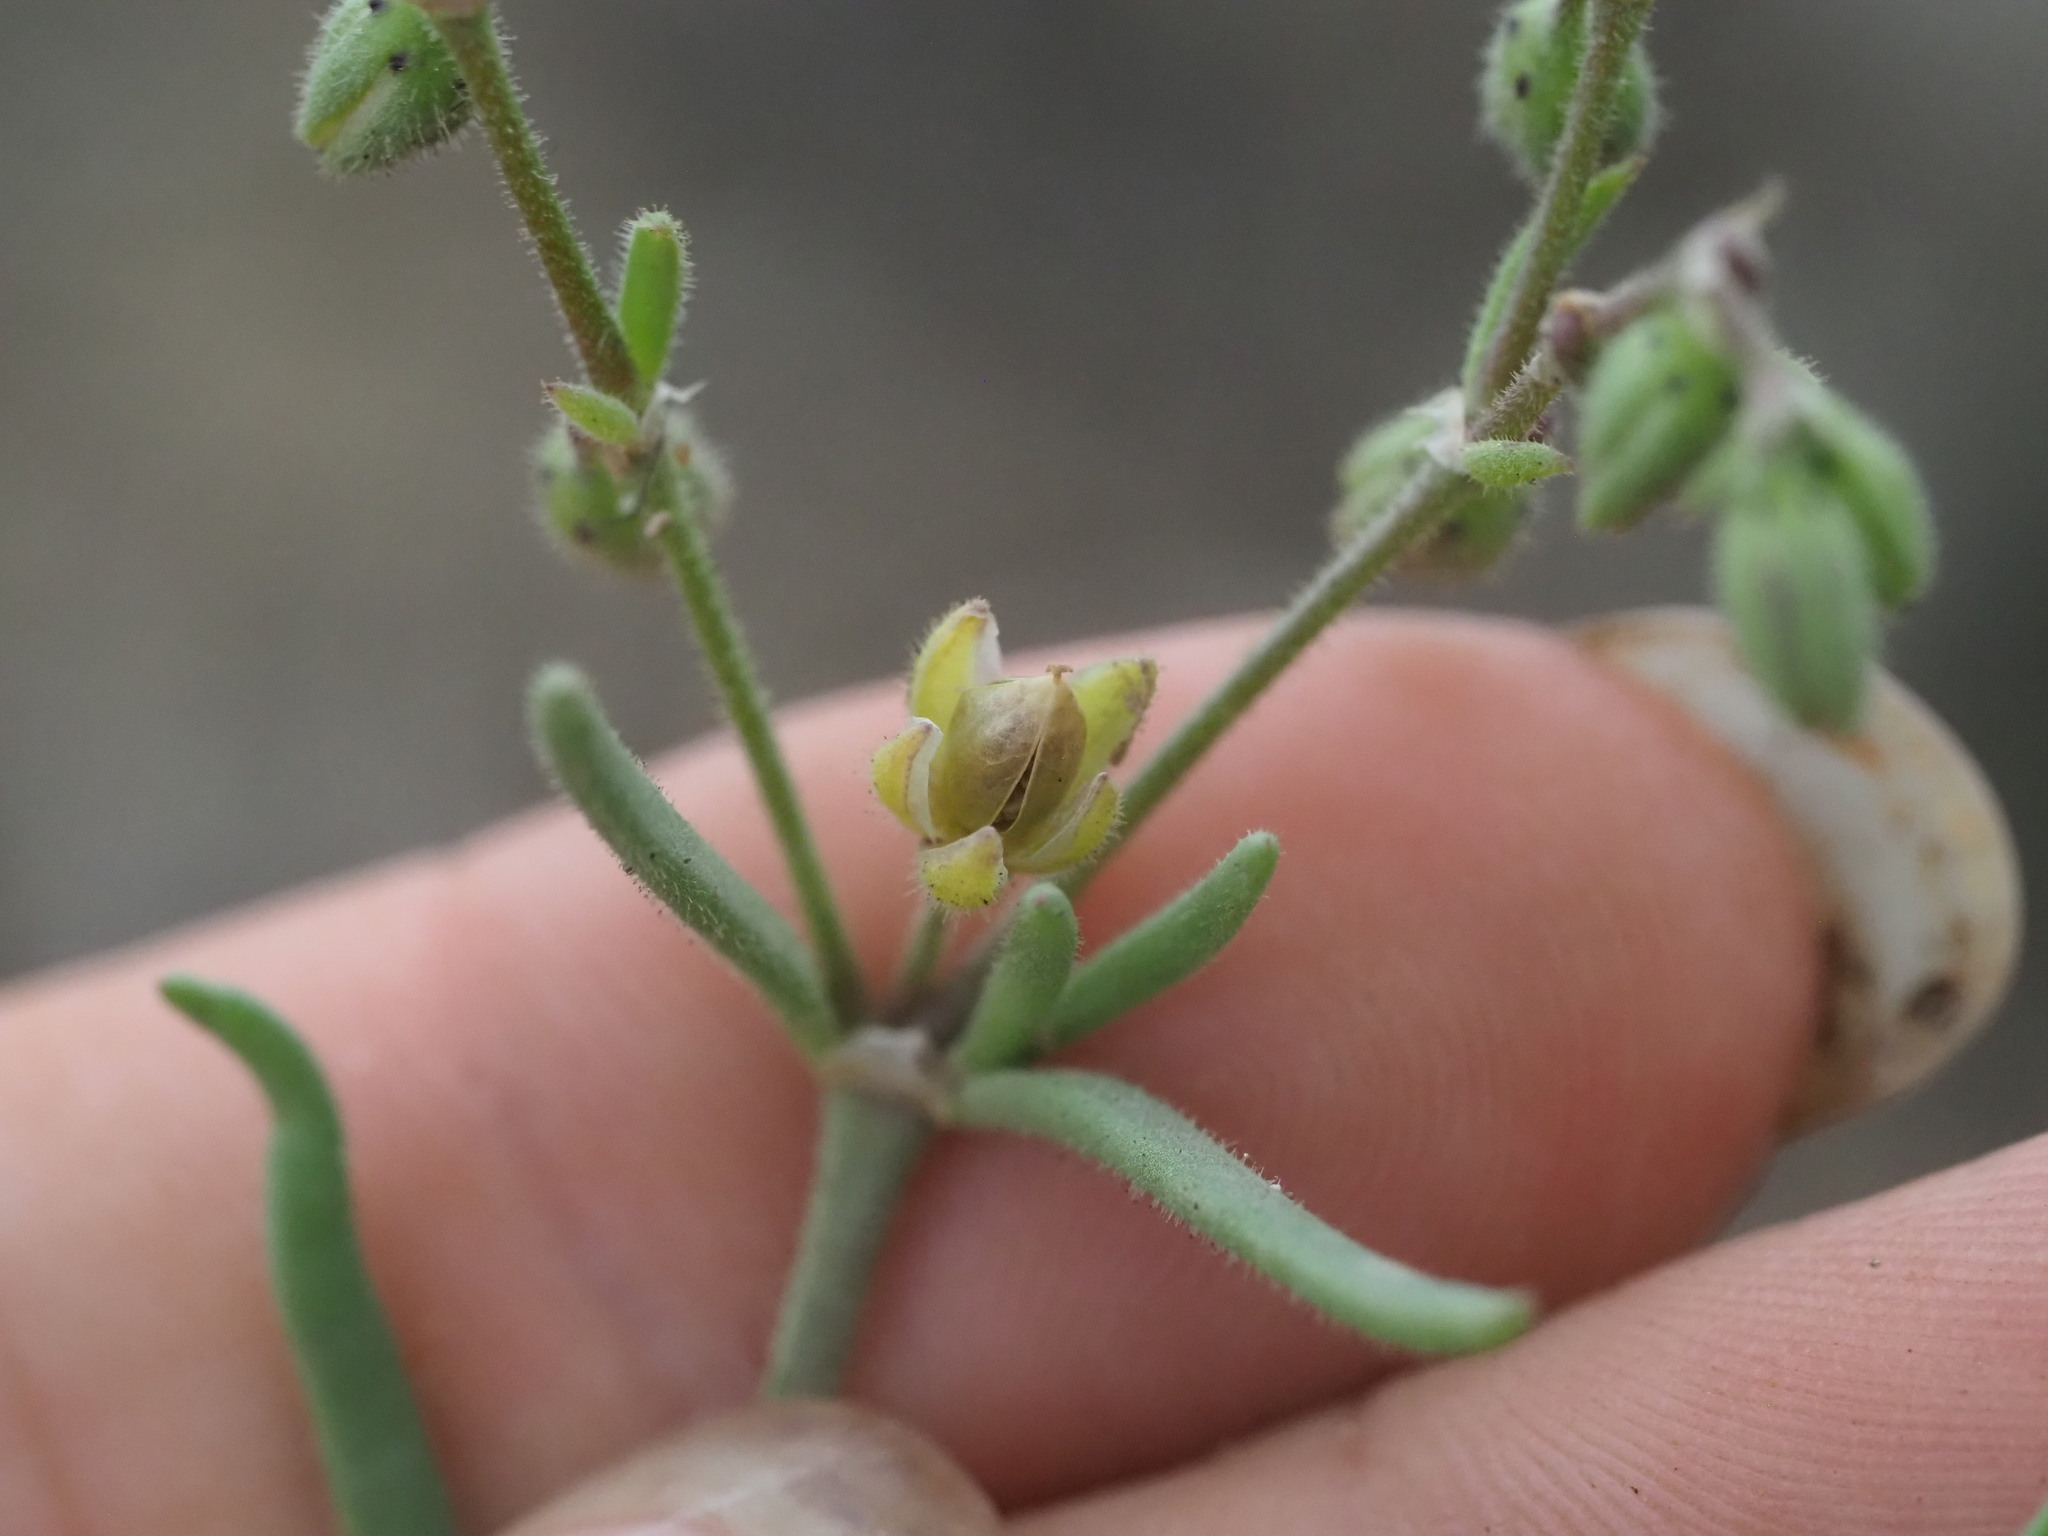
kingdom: Plantae
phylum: Tracheophyta
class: Magnoliopsida
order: Caryophyllales
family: Caryophyllaceae
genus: Spergularia
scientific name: Spergularia marina
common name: Lesser sea-spurrey
